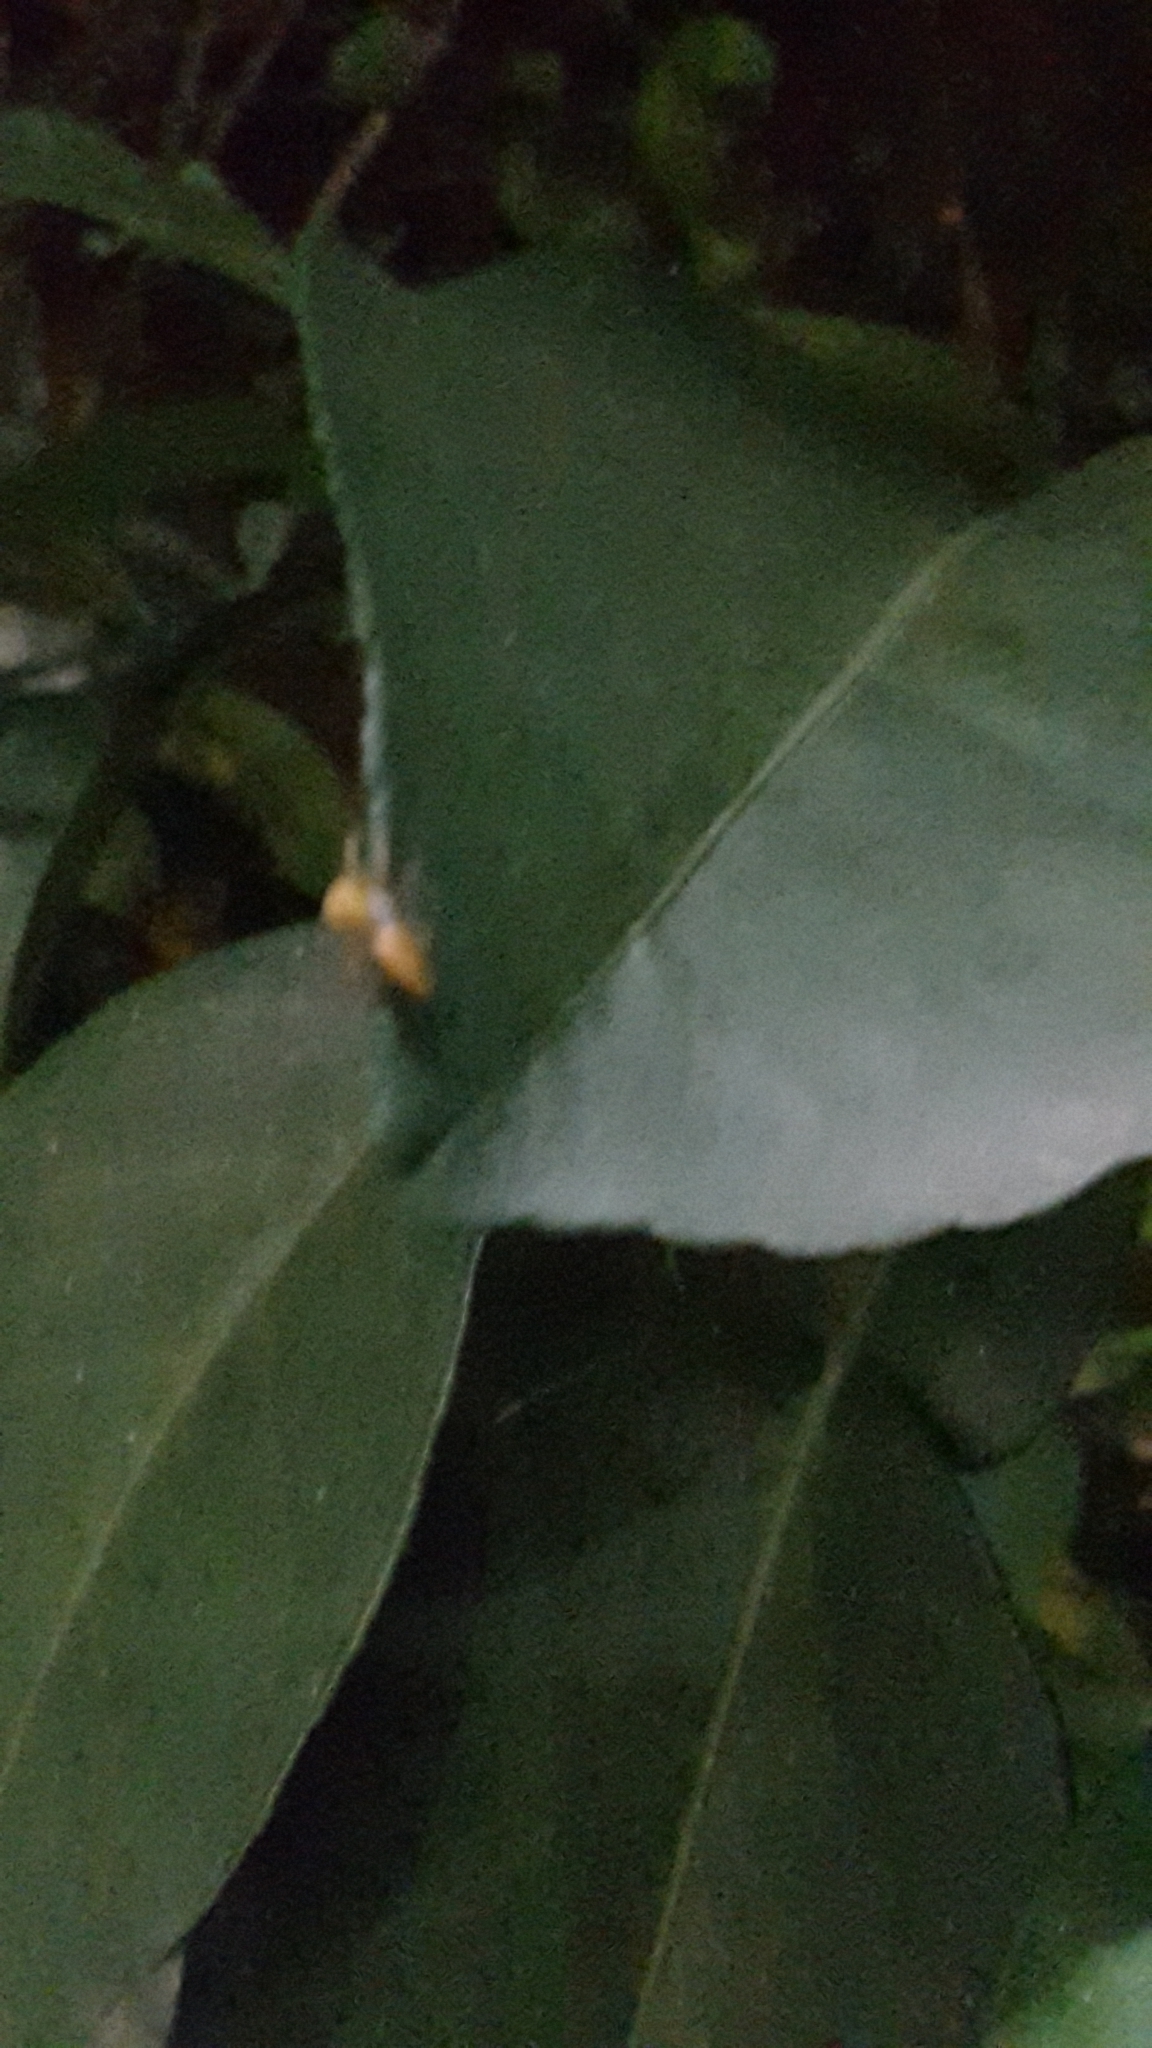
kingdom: Animalia
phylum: Arthropoda
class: Arachnida
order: Araneae
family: Salticidae
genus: Cosmophasis
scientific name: Cosmophasis lami
